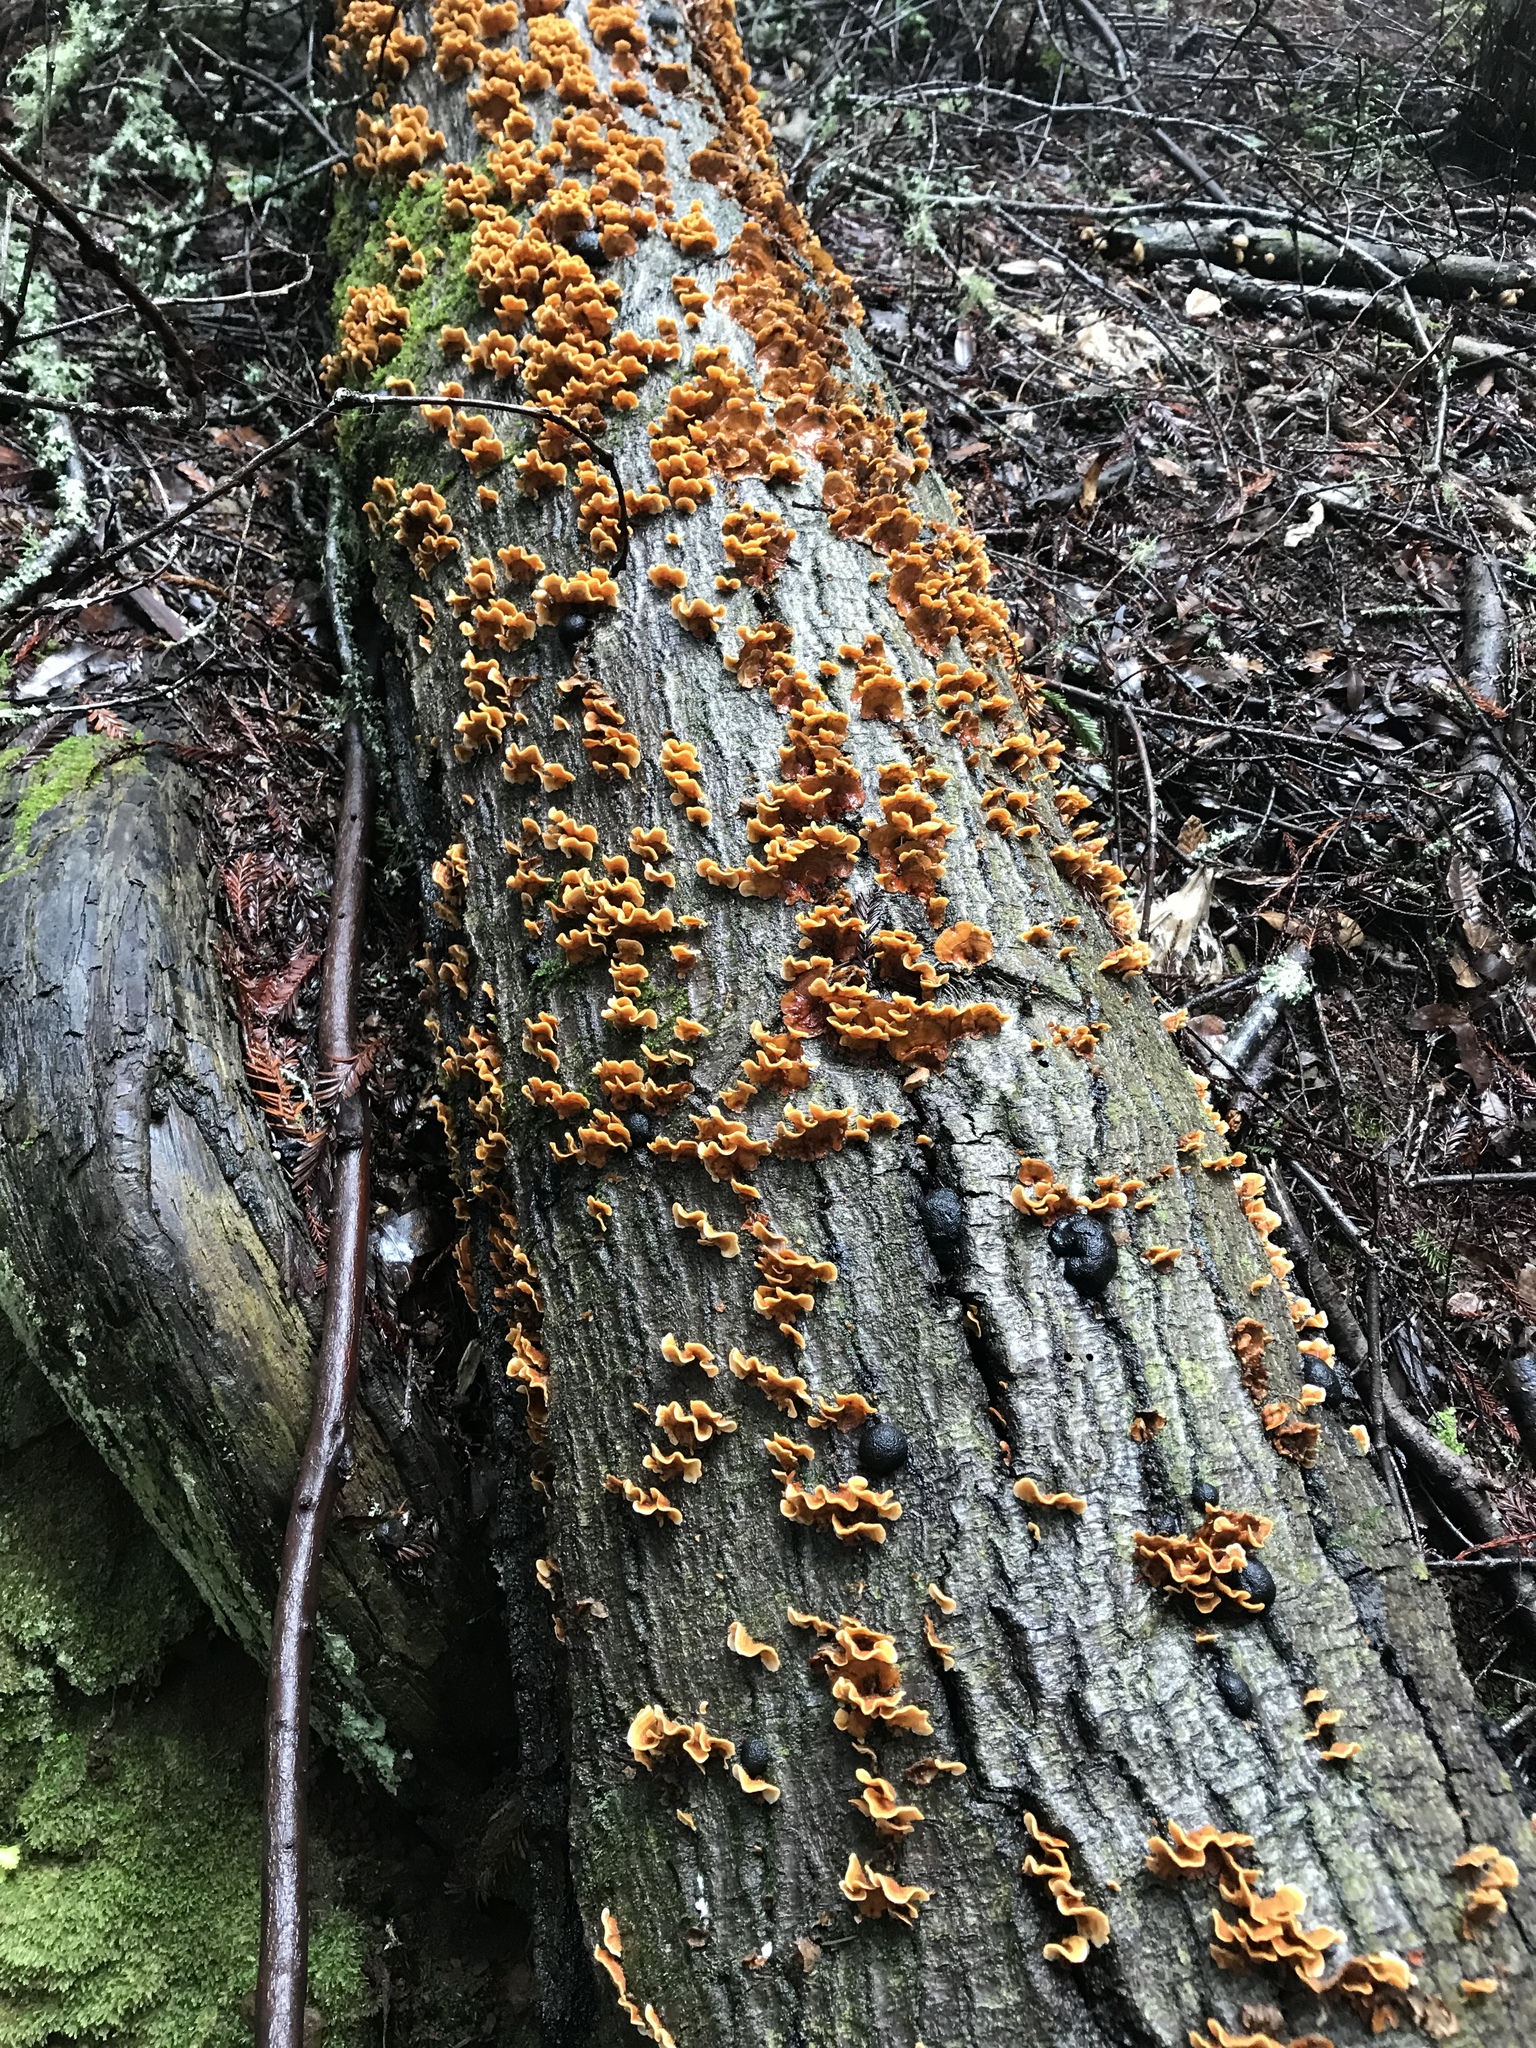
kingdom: Fungi
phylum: Basidiomycota
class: Agaricomycetes
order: Russulales
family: Stereaceae
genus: Stereum
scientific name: Stereum hirsutum
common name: Hairy curtain crust
